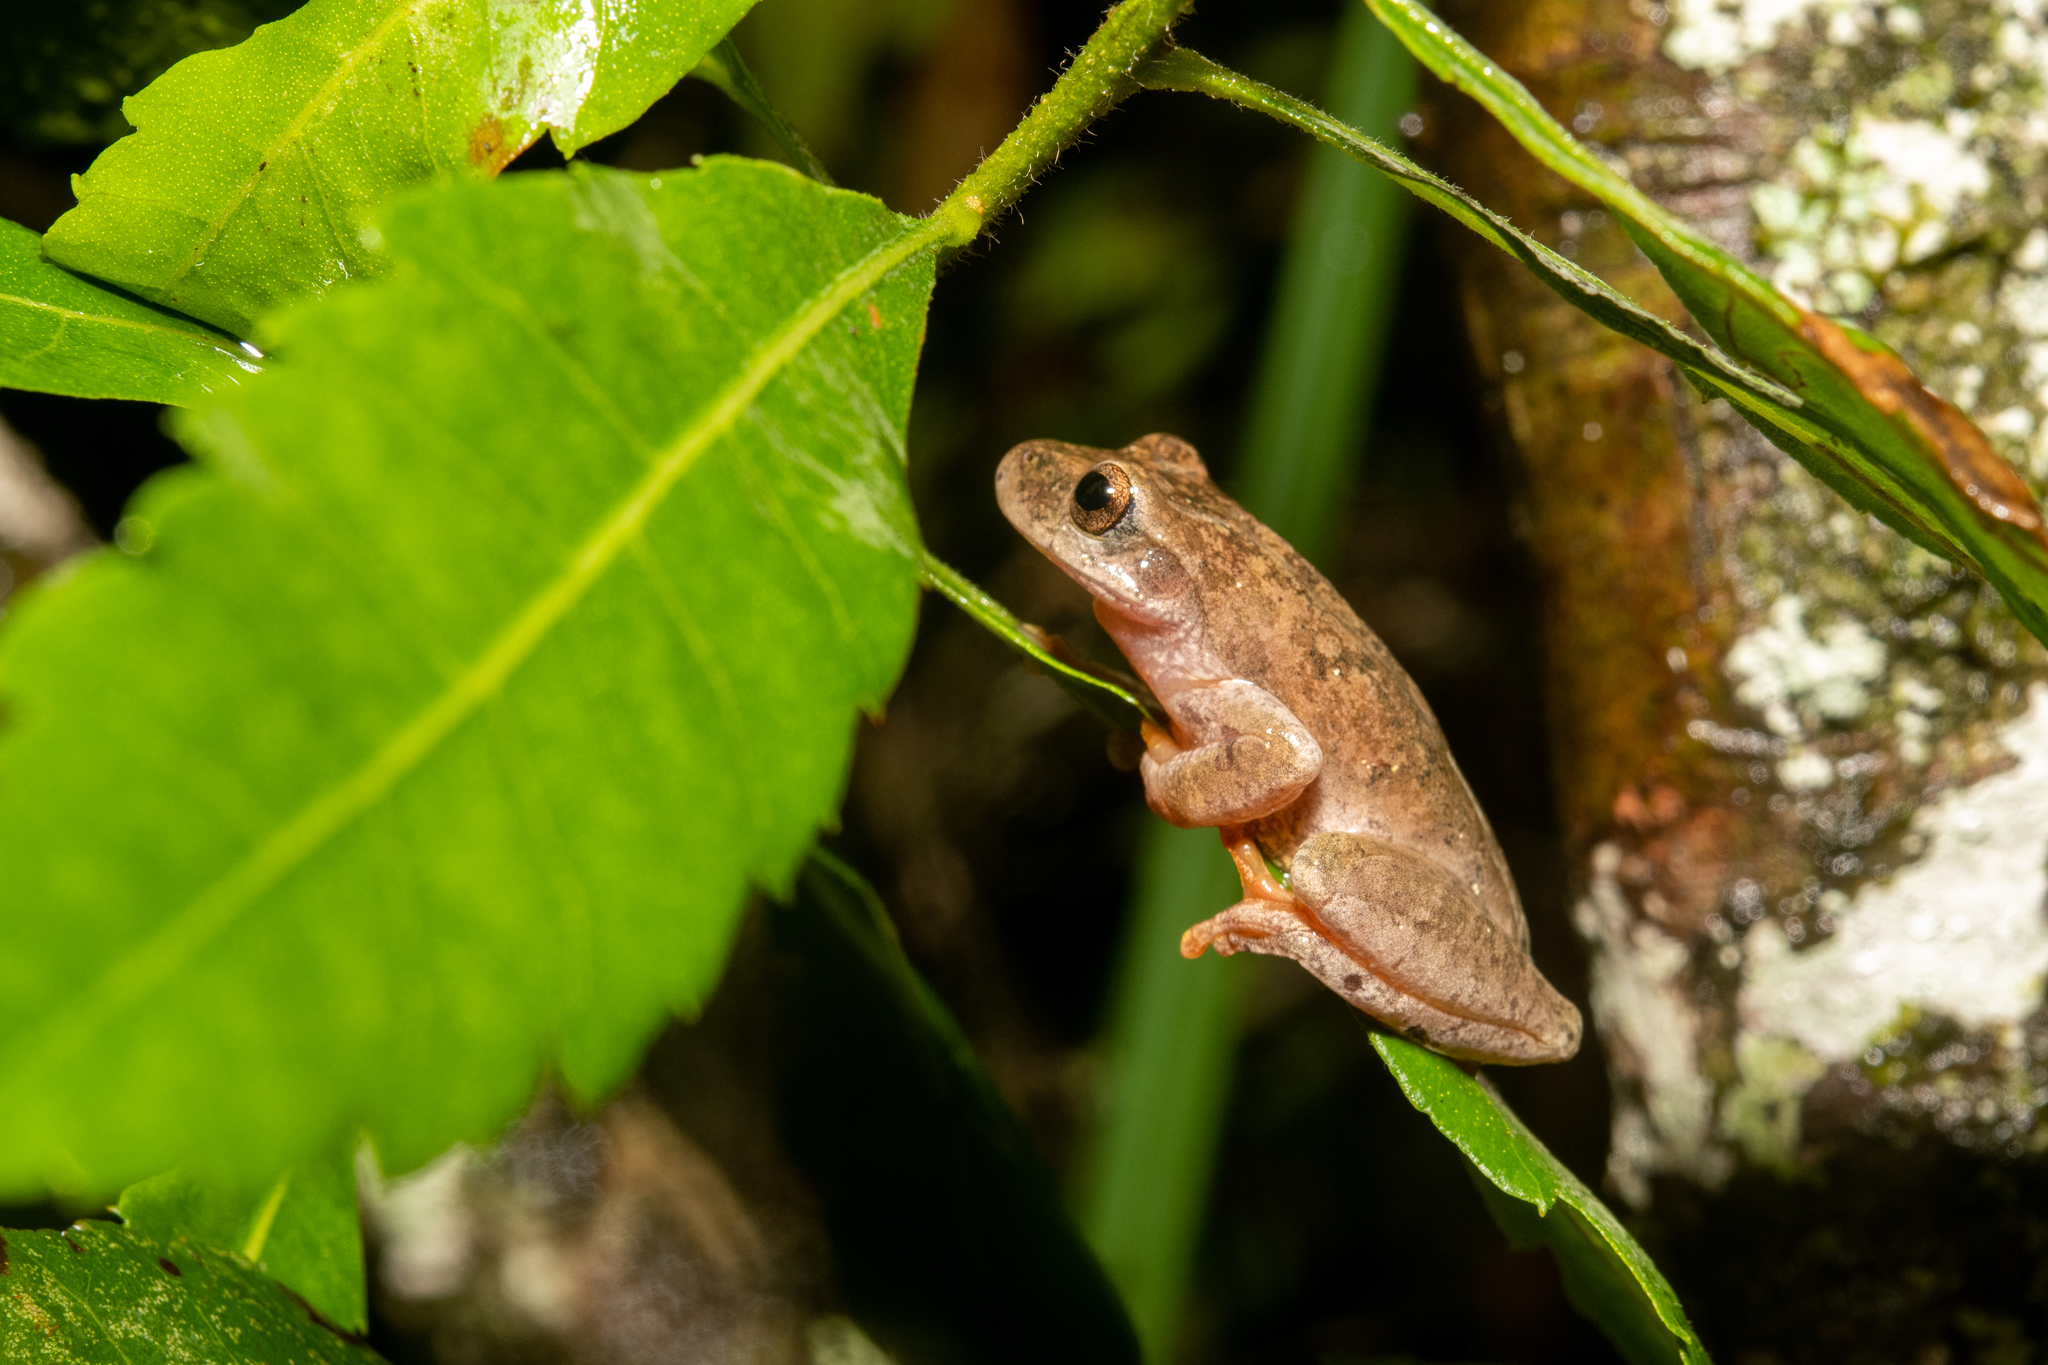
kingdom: Animalia
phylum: Chordata
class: Amphibia
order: Anura
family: Hylidae
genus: Ptychohyla
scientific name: Ptychohyla hypomykter
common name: Copan stream frog
